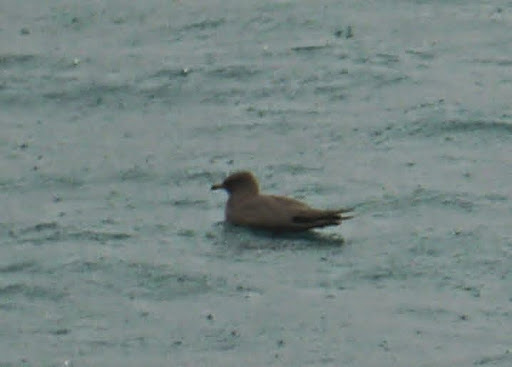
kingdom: Animalia
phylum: Chordata
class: Aves
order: Charadriiformes
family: Stercorariidae
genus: Stercorarius
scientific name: Stercorarius parasiticus
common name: Parasitic jaeger
